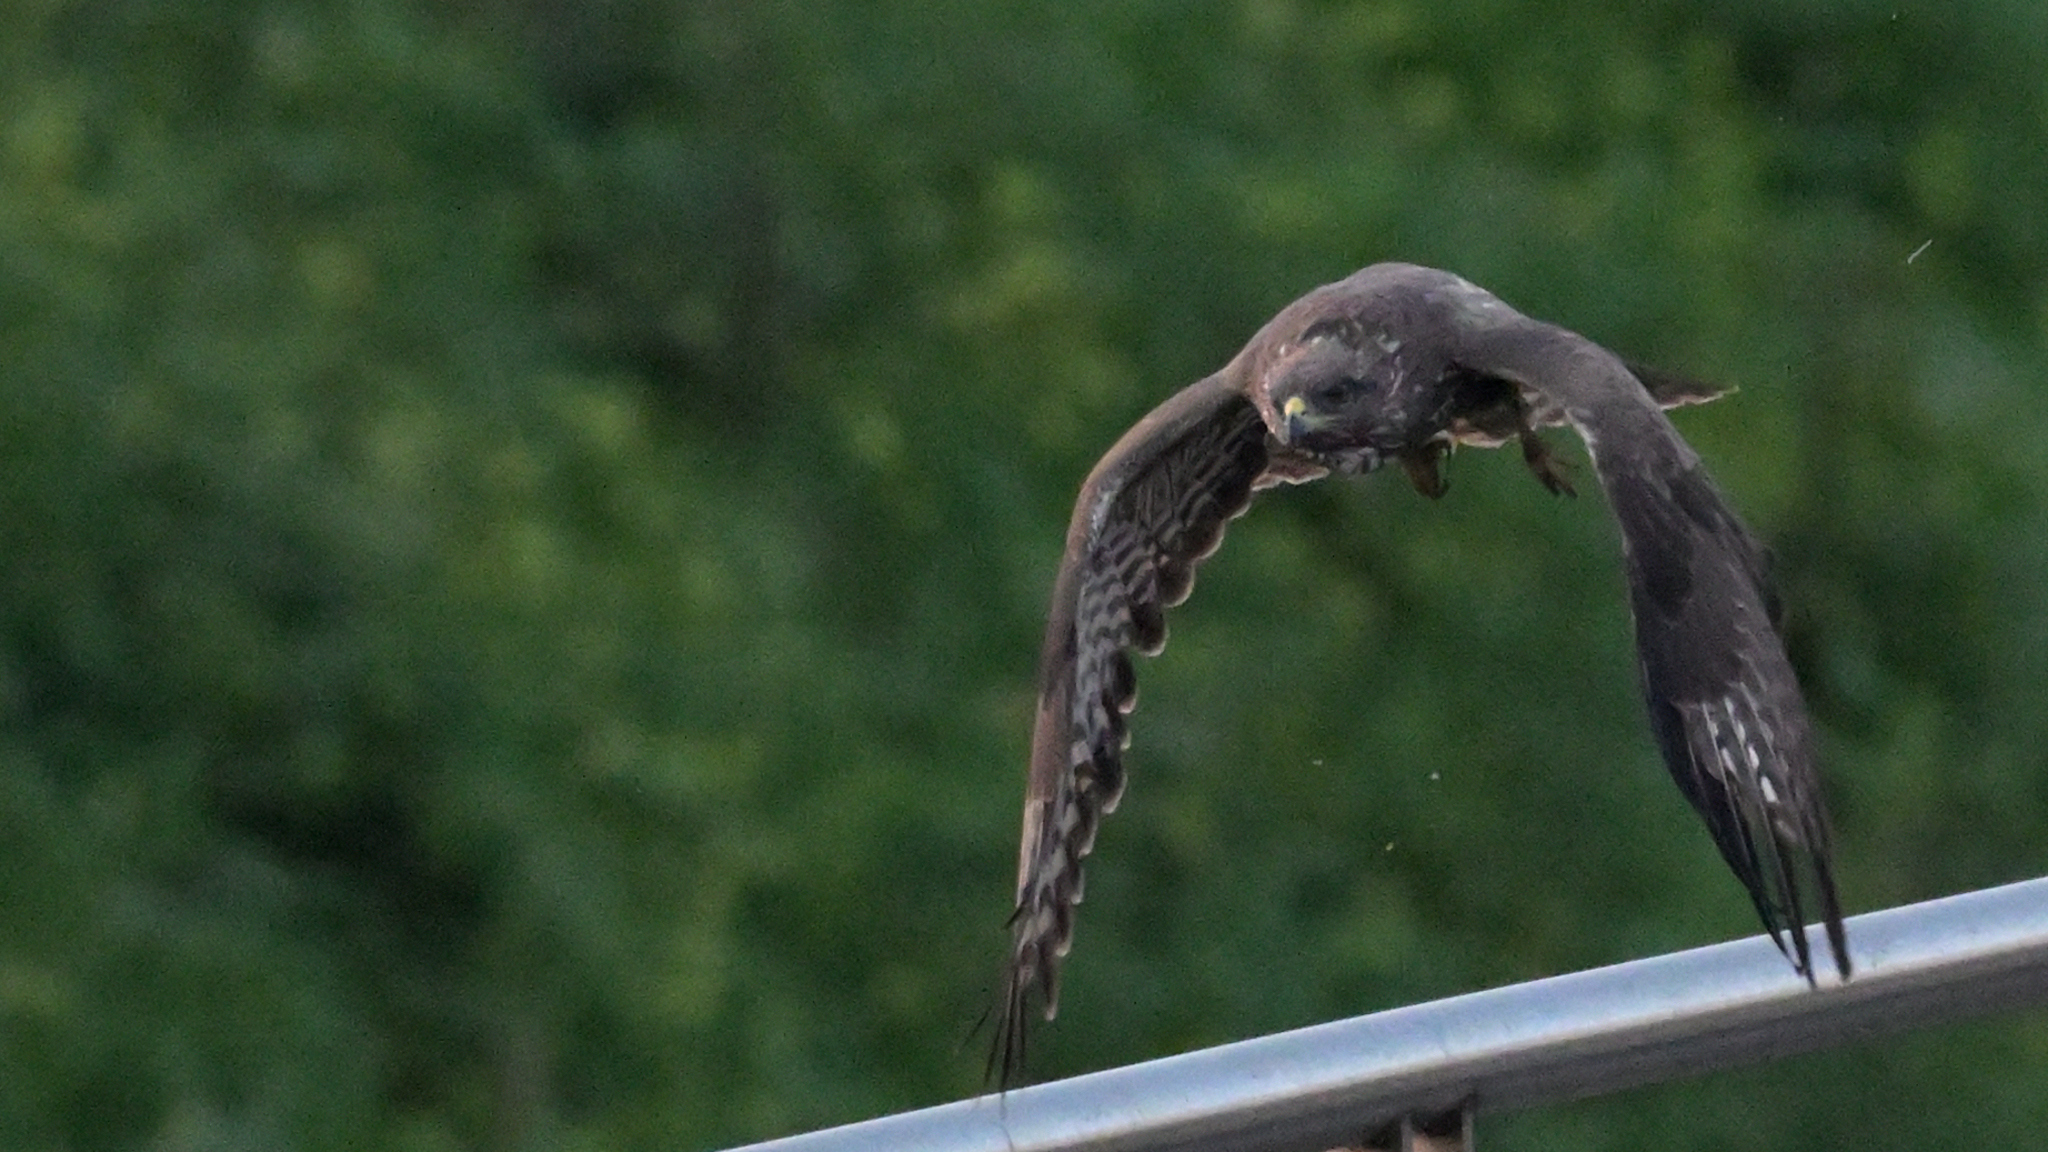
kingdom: Animalia
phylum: Chordata
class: Aves
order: Accipitriformes
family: Accipitridae
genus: Buteo
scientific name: Buteo buteo
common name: Common buzzard
